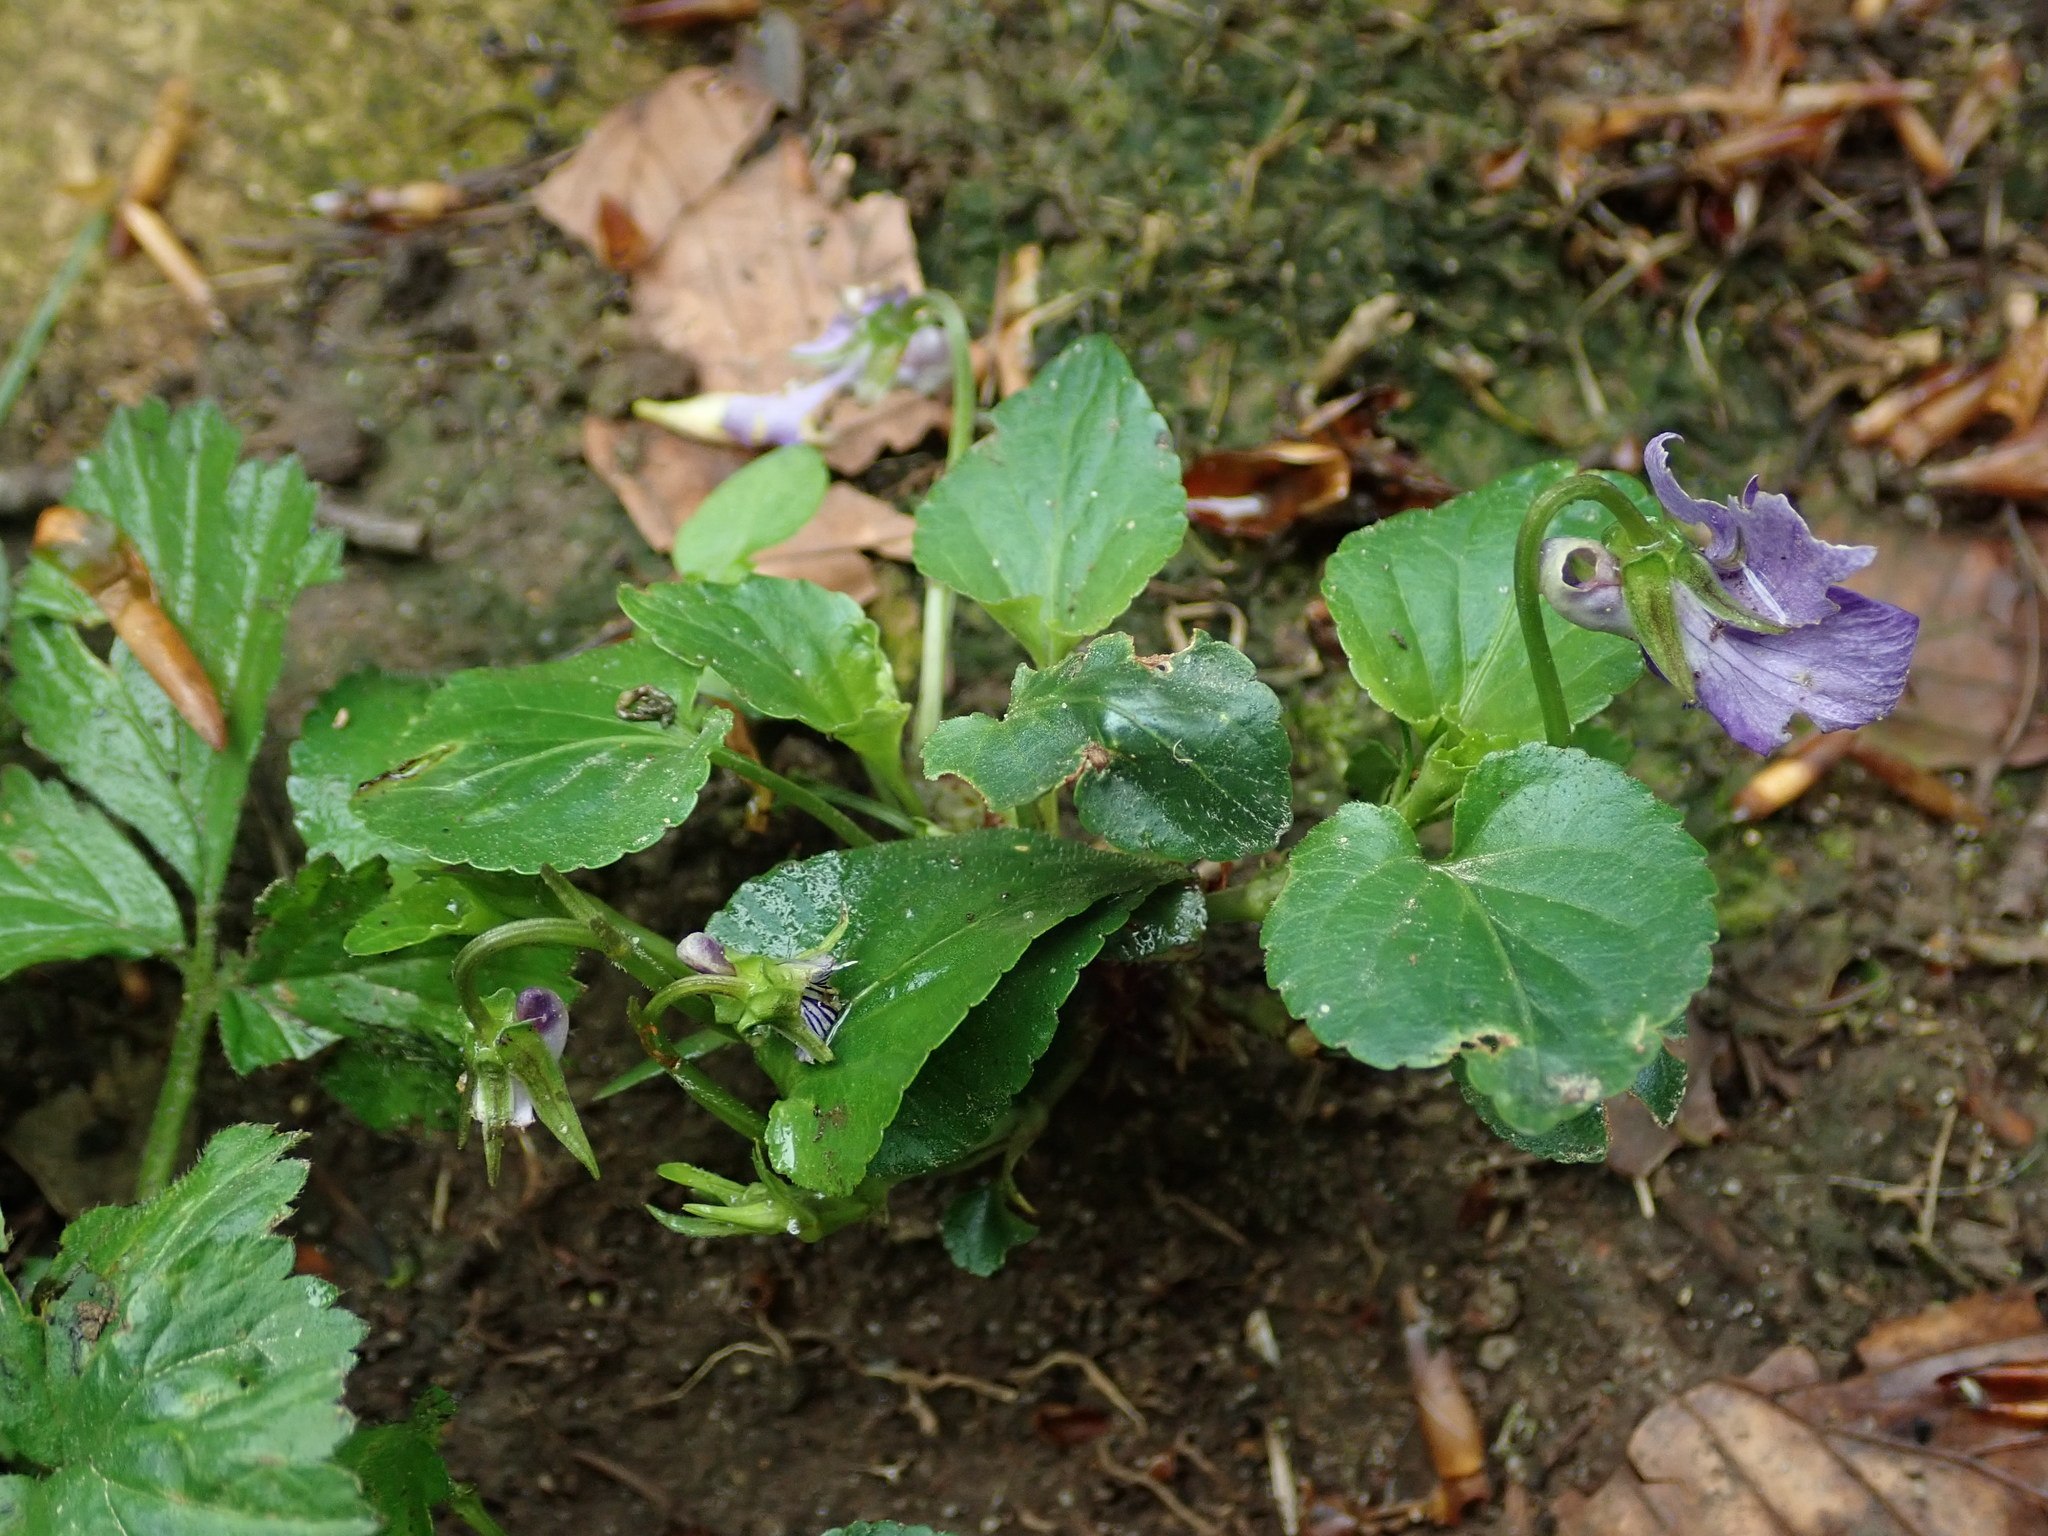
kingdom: Plantae
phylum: Tracheophyta
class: Magnoliopsida
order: Malpighiales
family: Violaceae
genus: Viola
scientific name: Viola riviniana
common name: Common dog-violet
